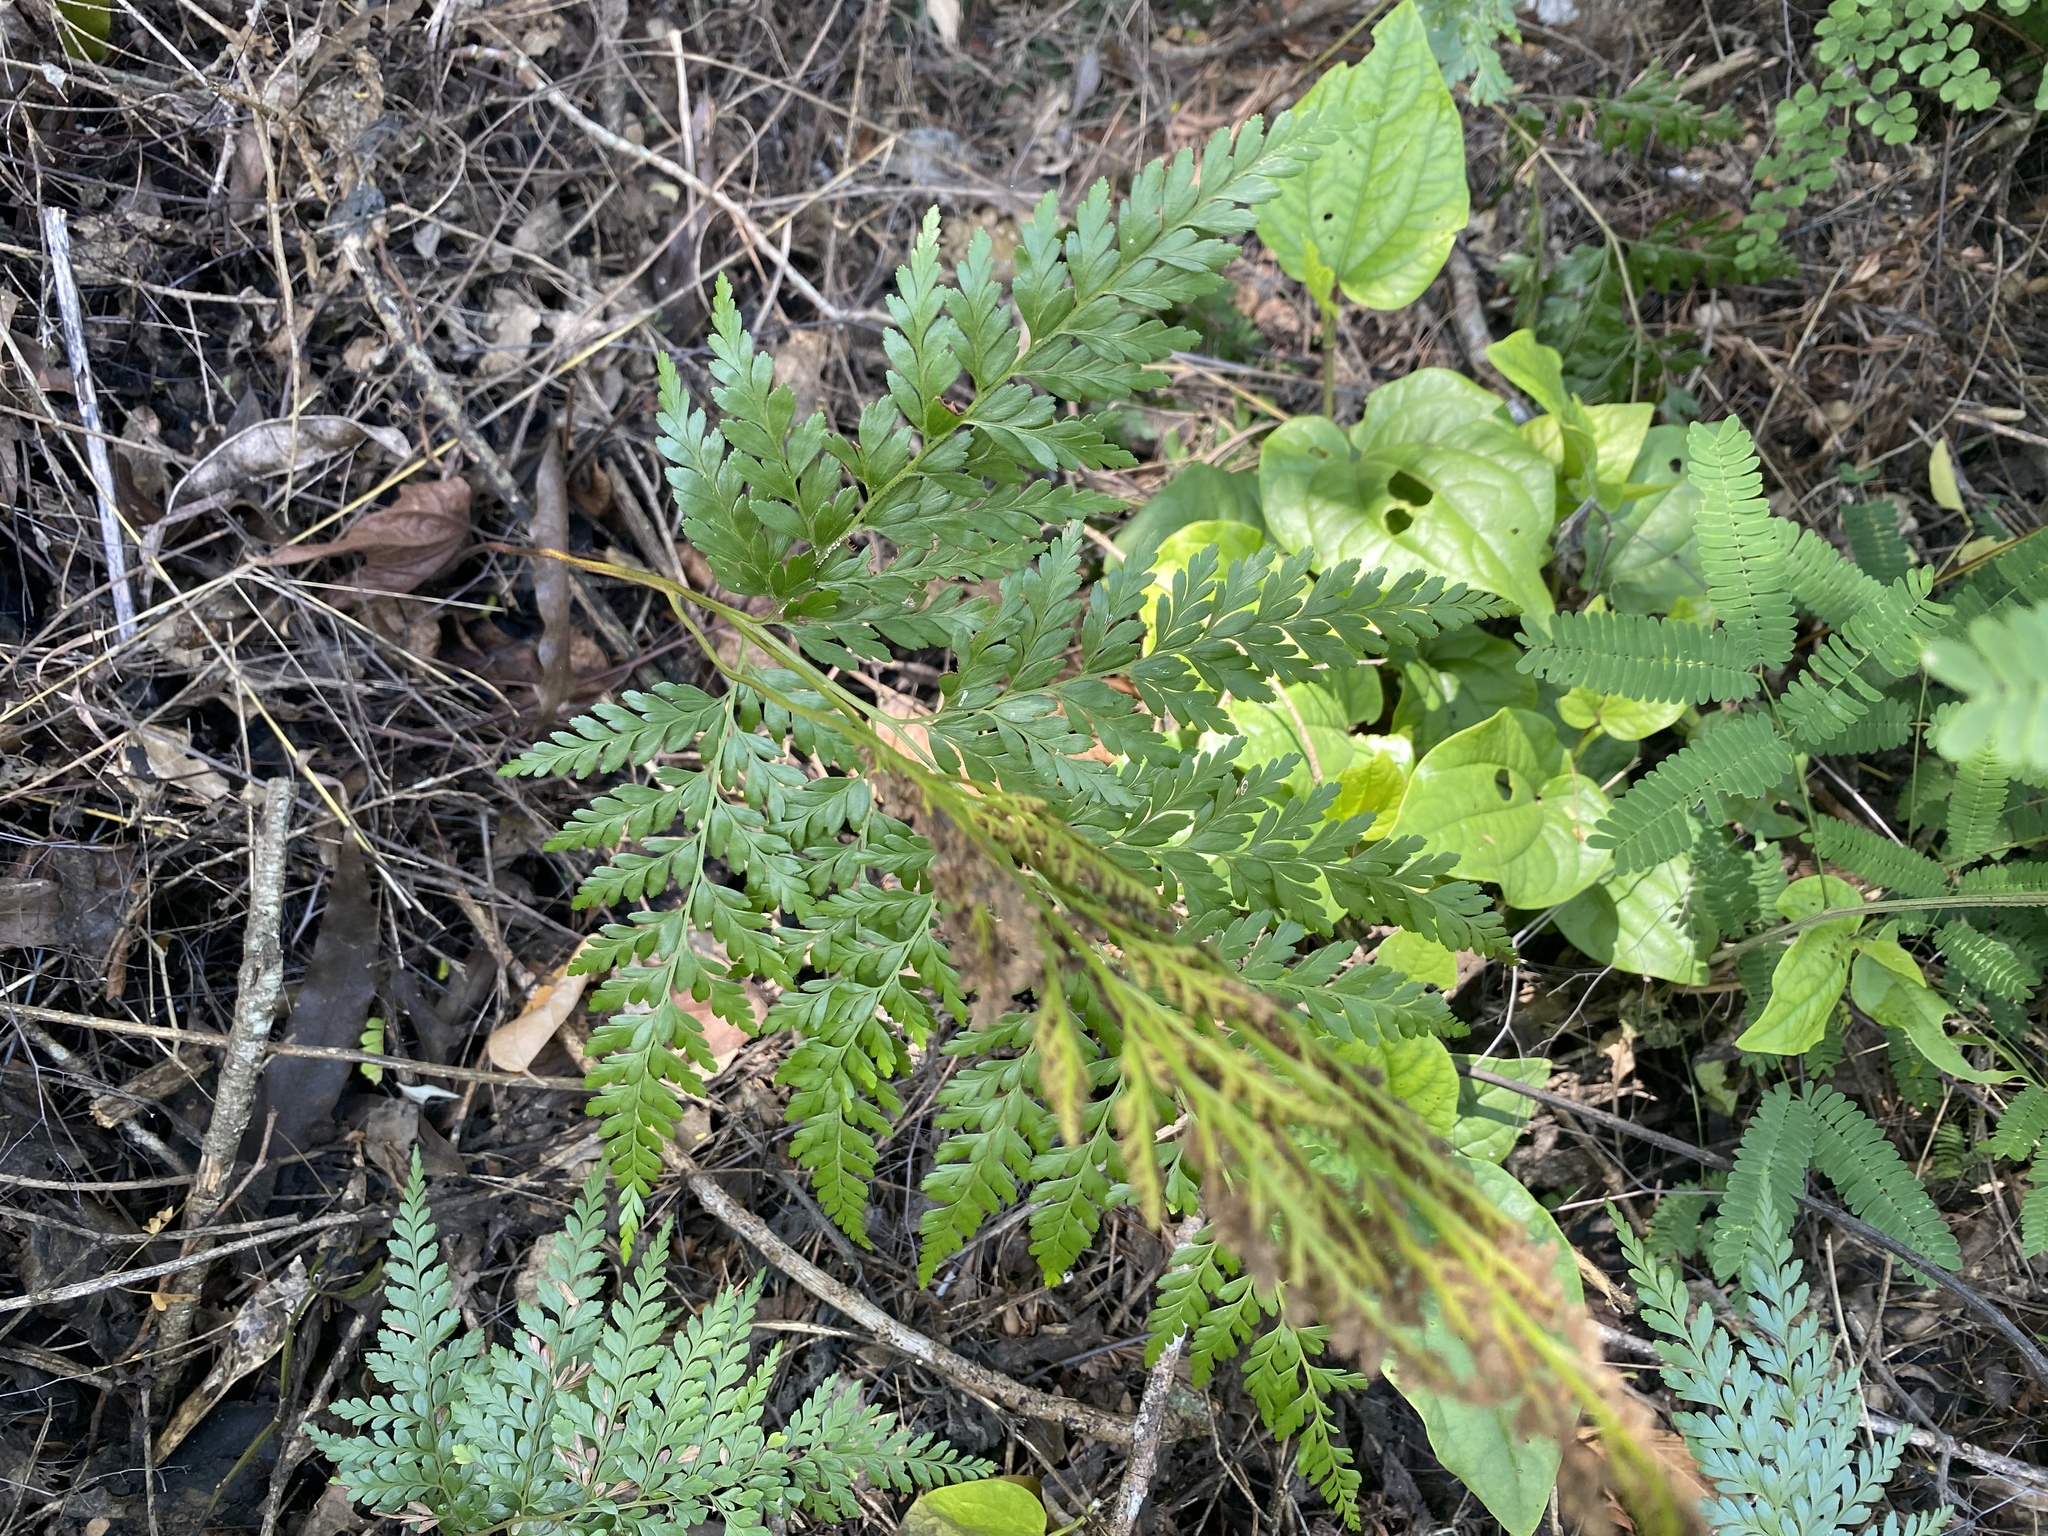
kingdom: Plantae
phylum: Tracheophyta
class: Polypodiopsida
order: Schizaeales
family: Anemiaceae
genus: Anemia
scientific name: Anemia adiantifolia
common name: Pine fern
